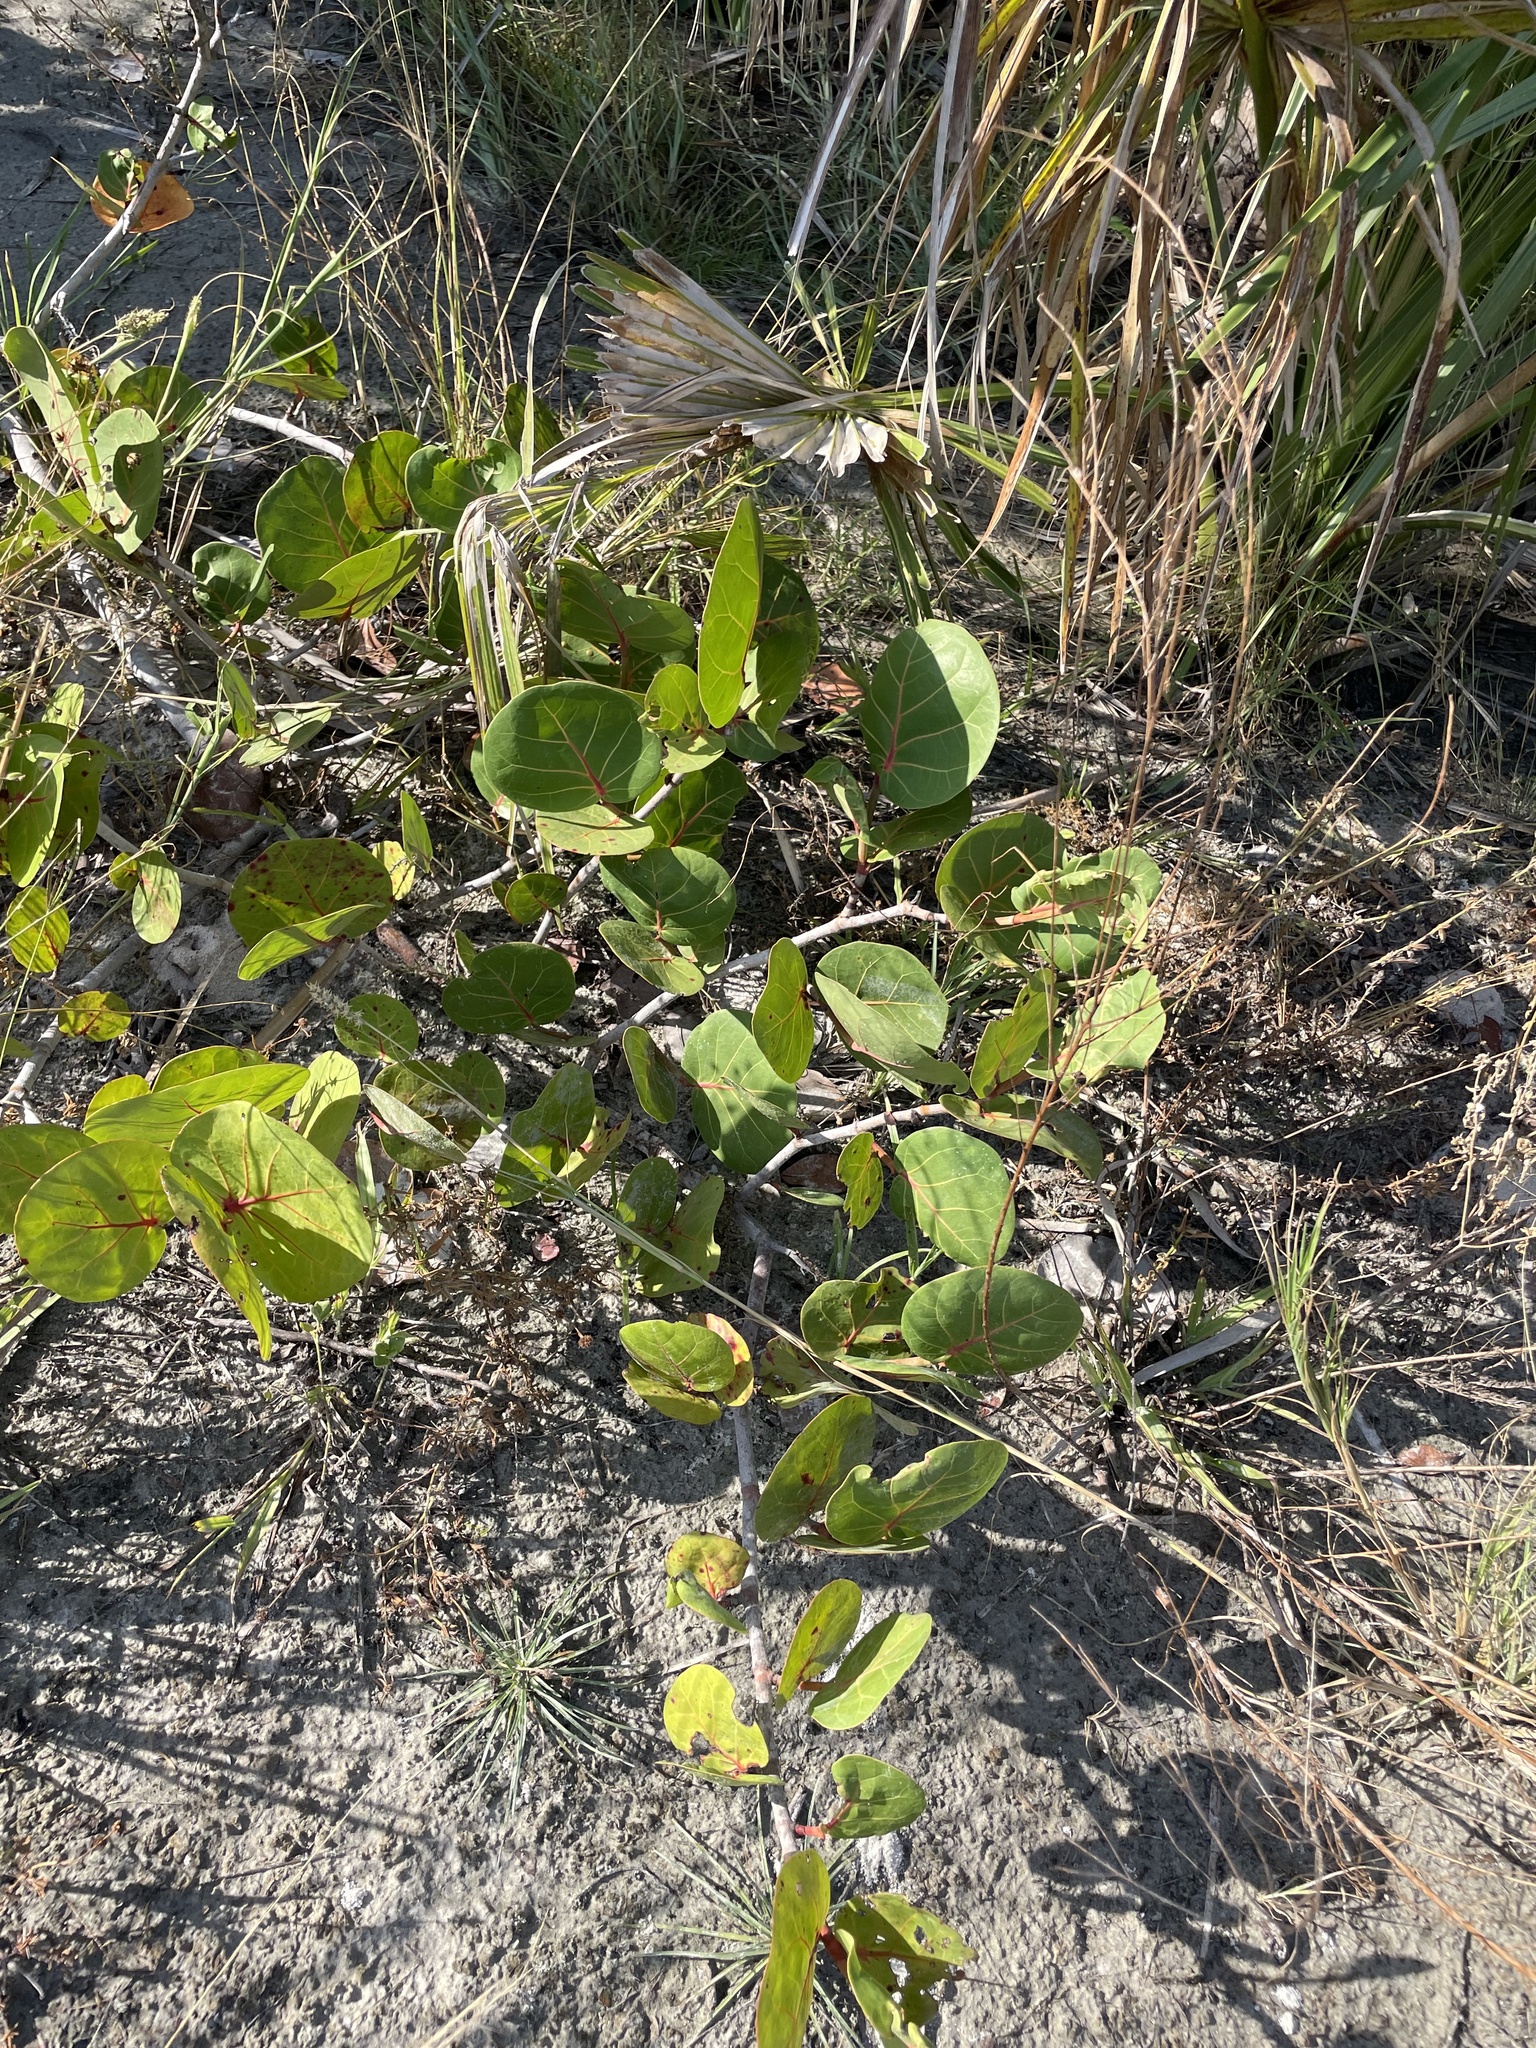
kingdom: Plantae
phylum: Tracheophyta
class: Magnoliopsida
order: Caryophyllales
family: Polygonaceae
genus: Coccoloba
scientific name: Coccoloba uvifera
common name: Seagrape
